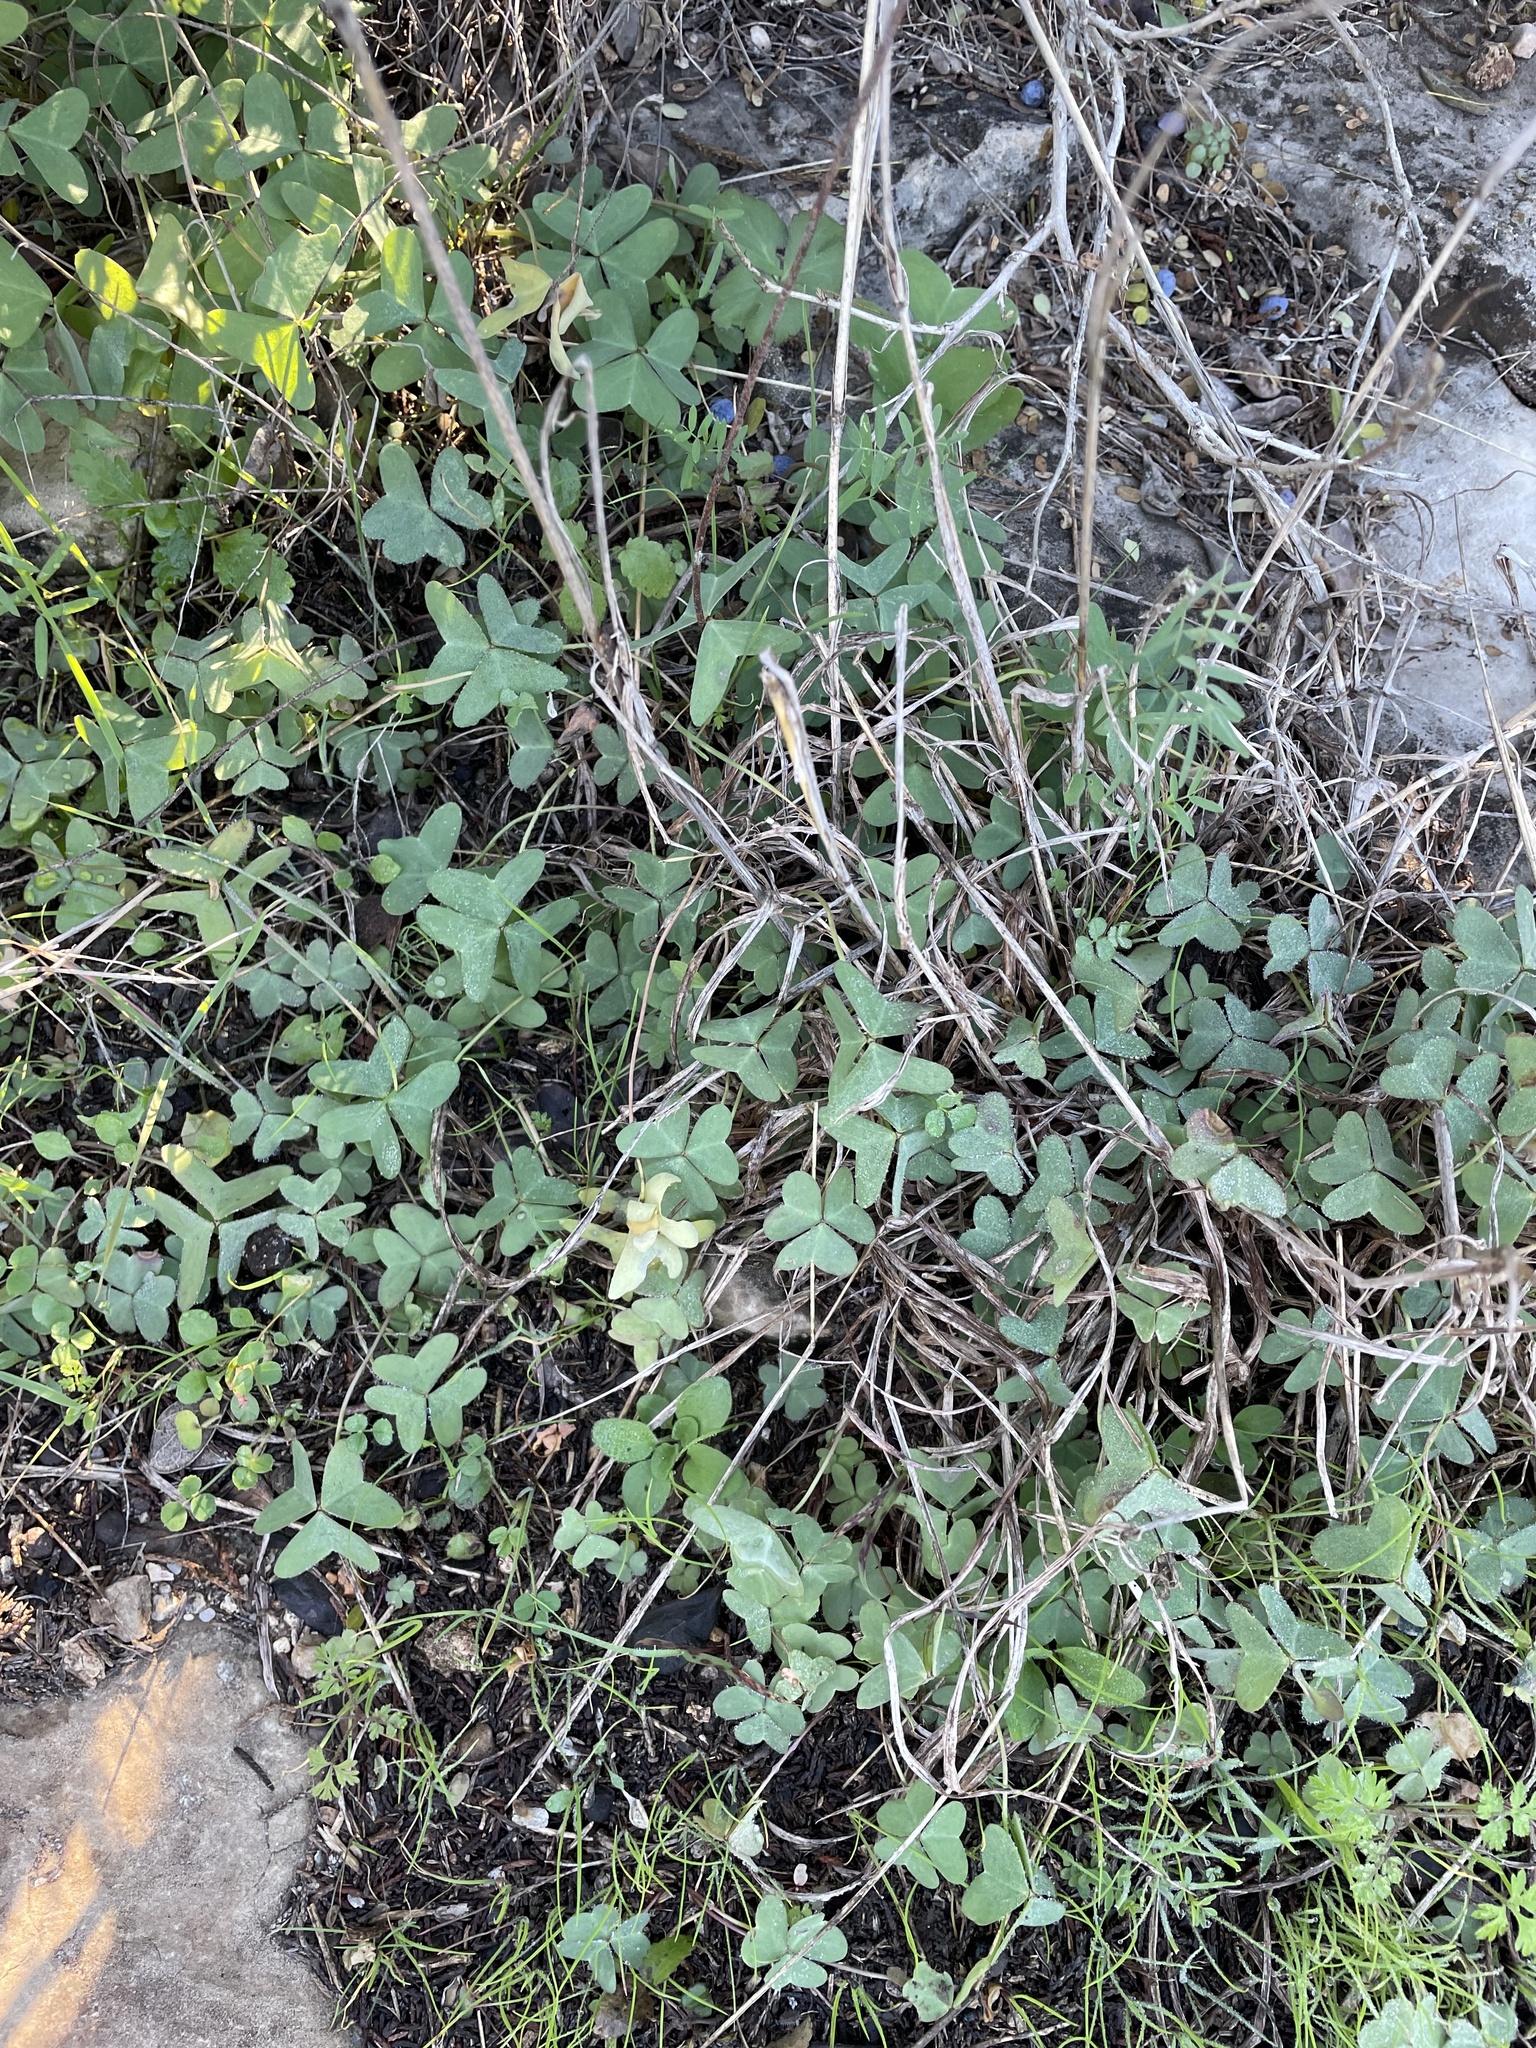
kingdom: Plantae
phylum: Tracheophyta
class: Magnoliopsida
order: Oxalidales
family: Oxalidaceae
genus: Oxalis
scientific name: Oxalis drummondii
